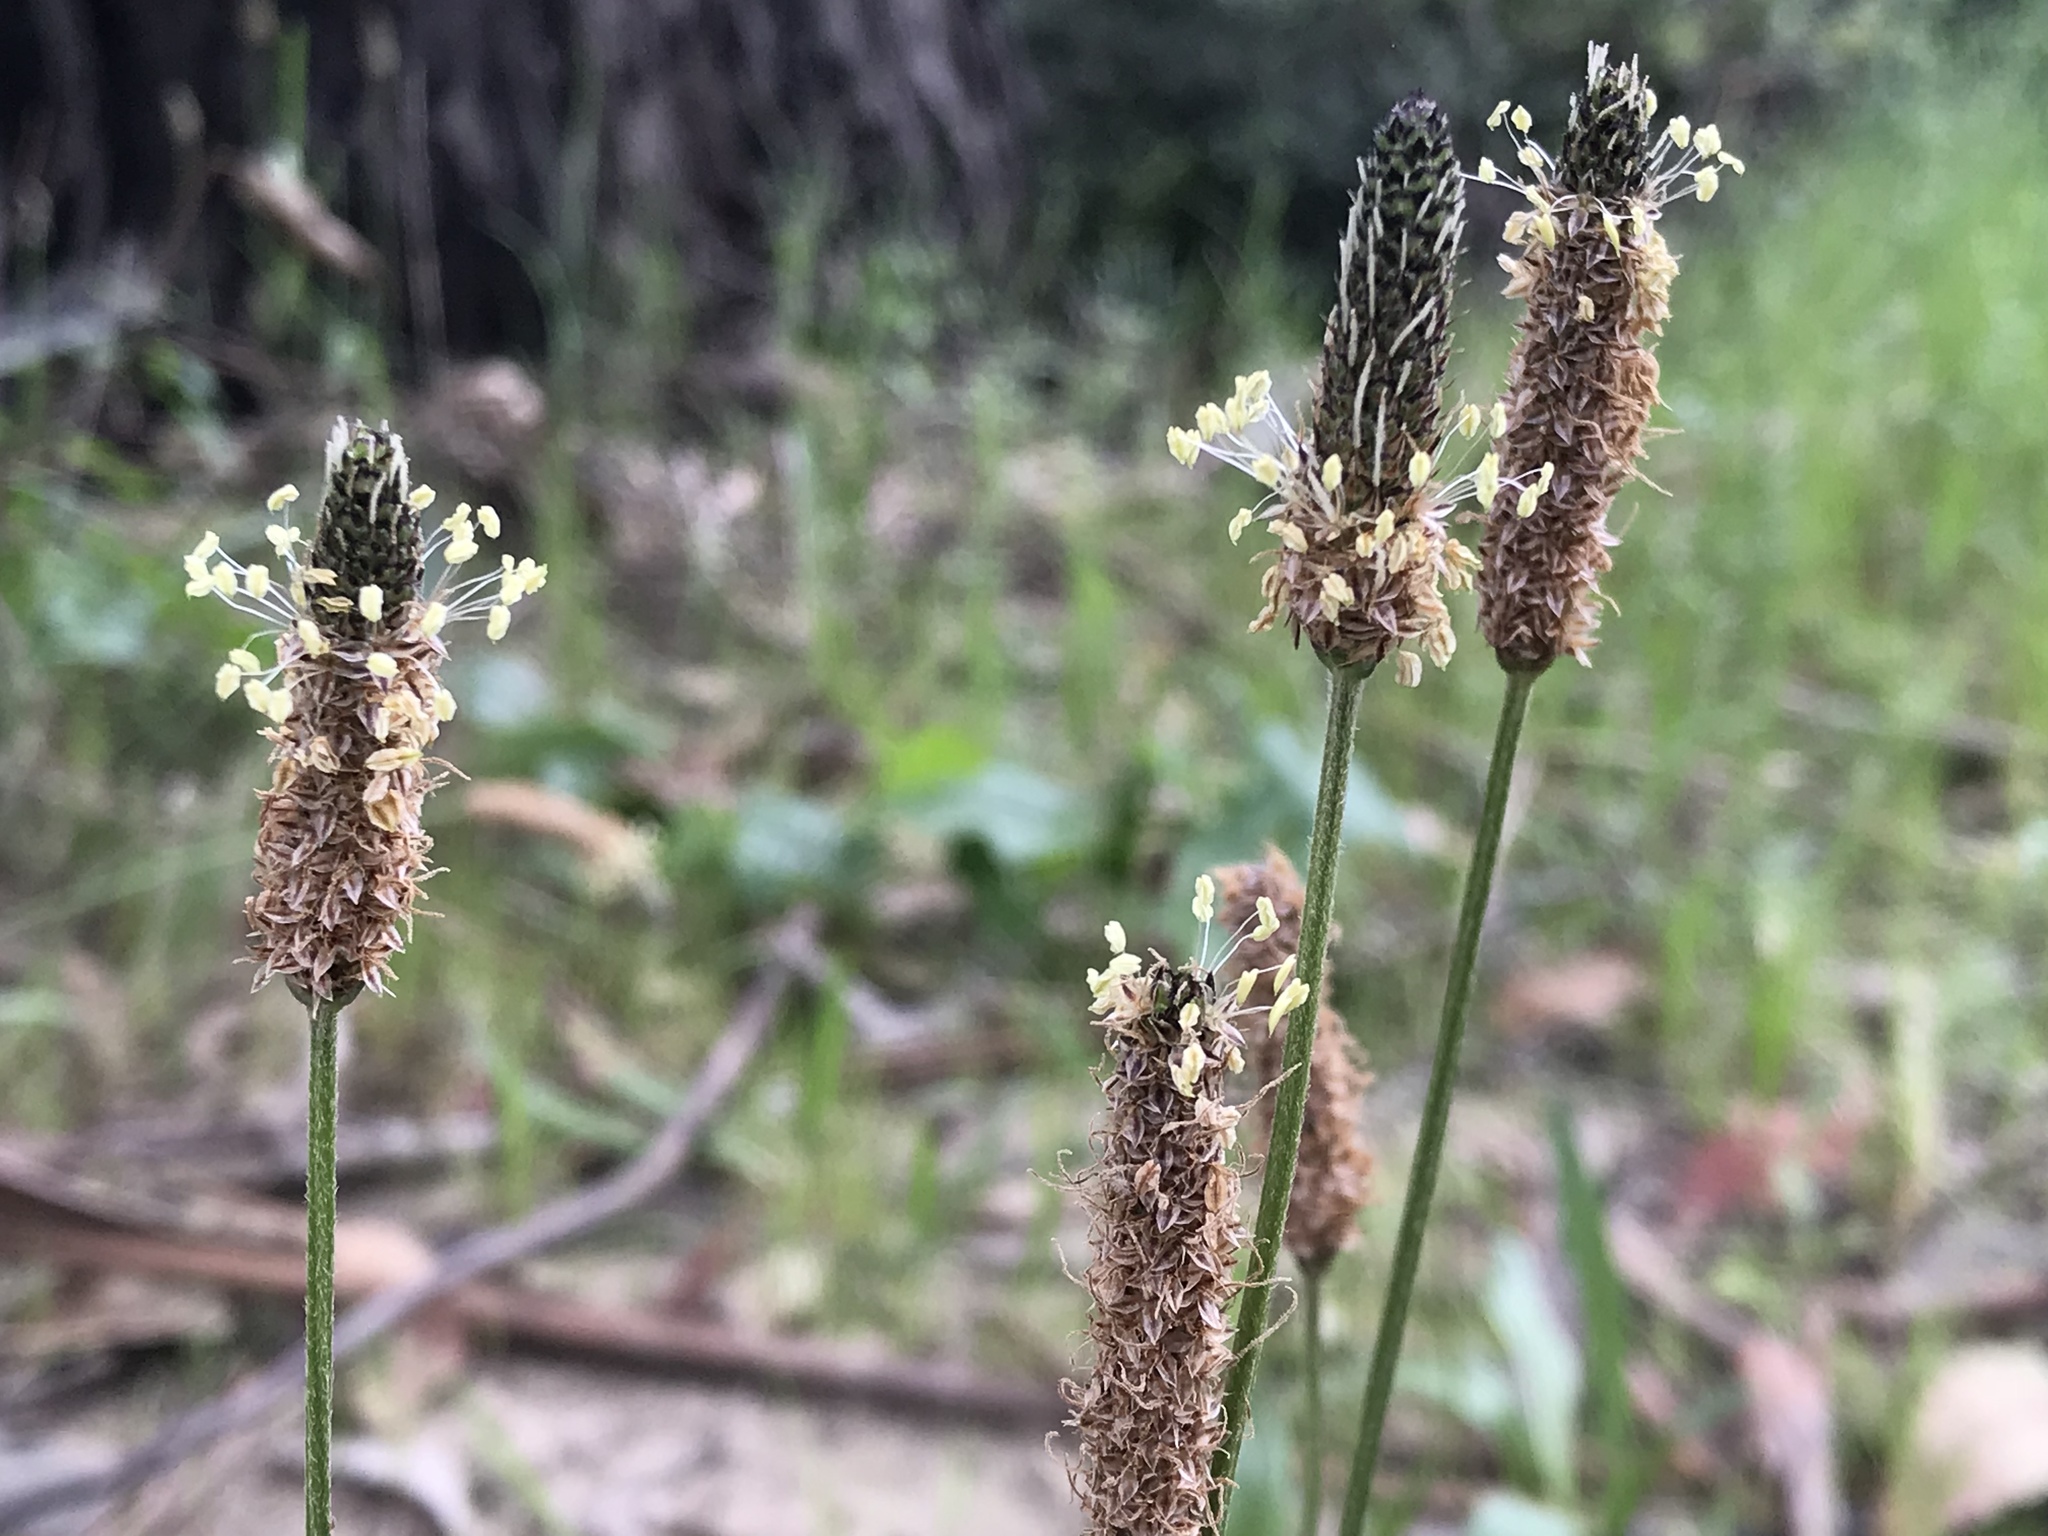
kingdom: Plantae
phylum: Tracheophyta
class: Magnoliopsida
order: Lamiales
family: Plantaginaceae
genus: Plantago
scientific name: Plantago lanceolata
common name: Ribwort plantain
